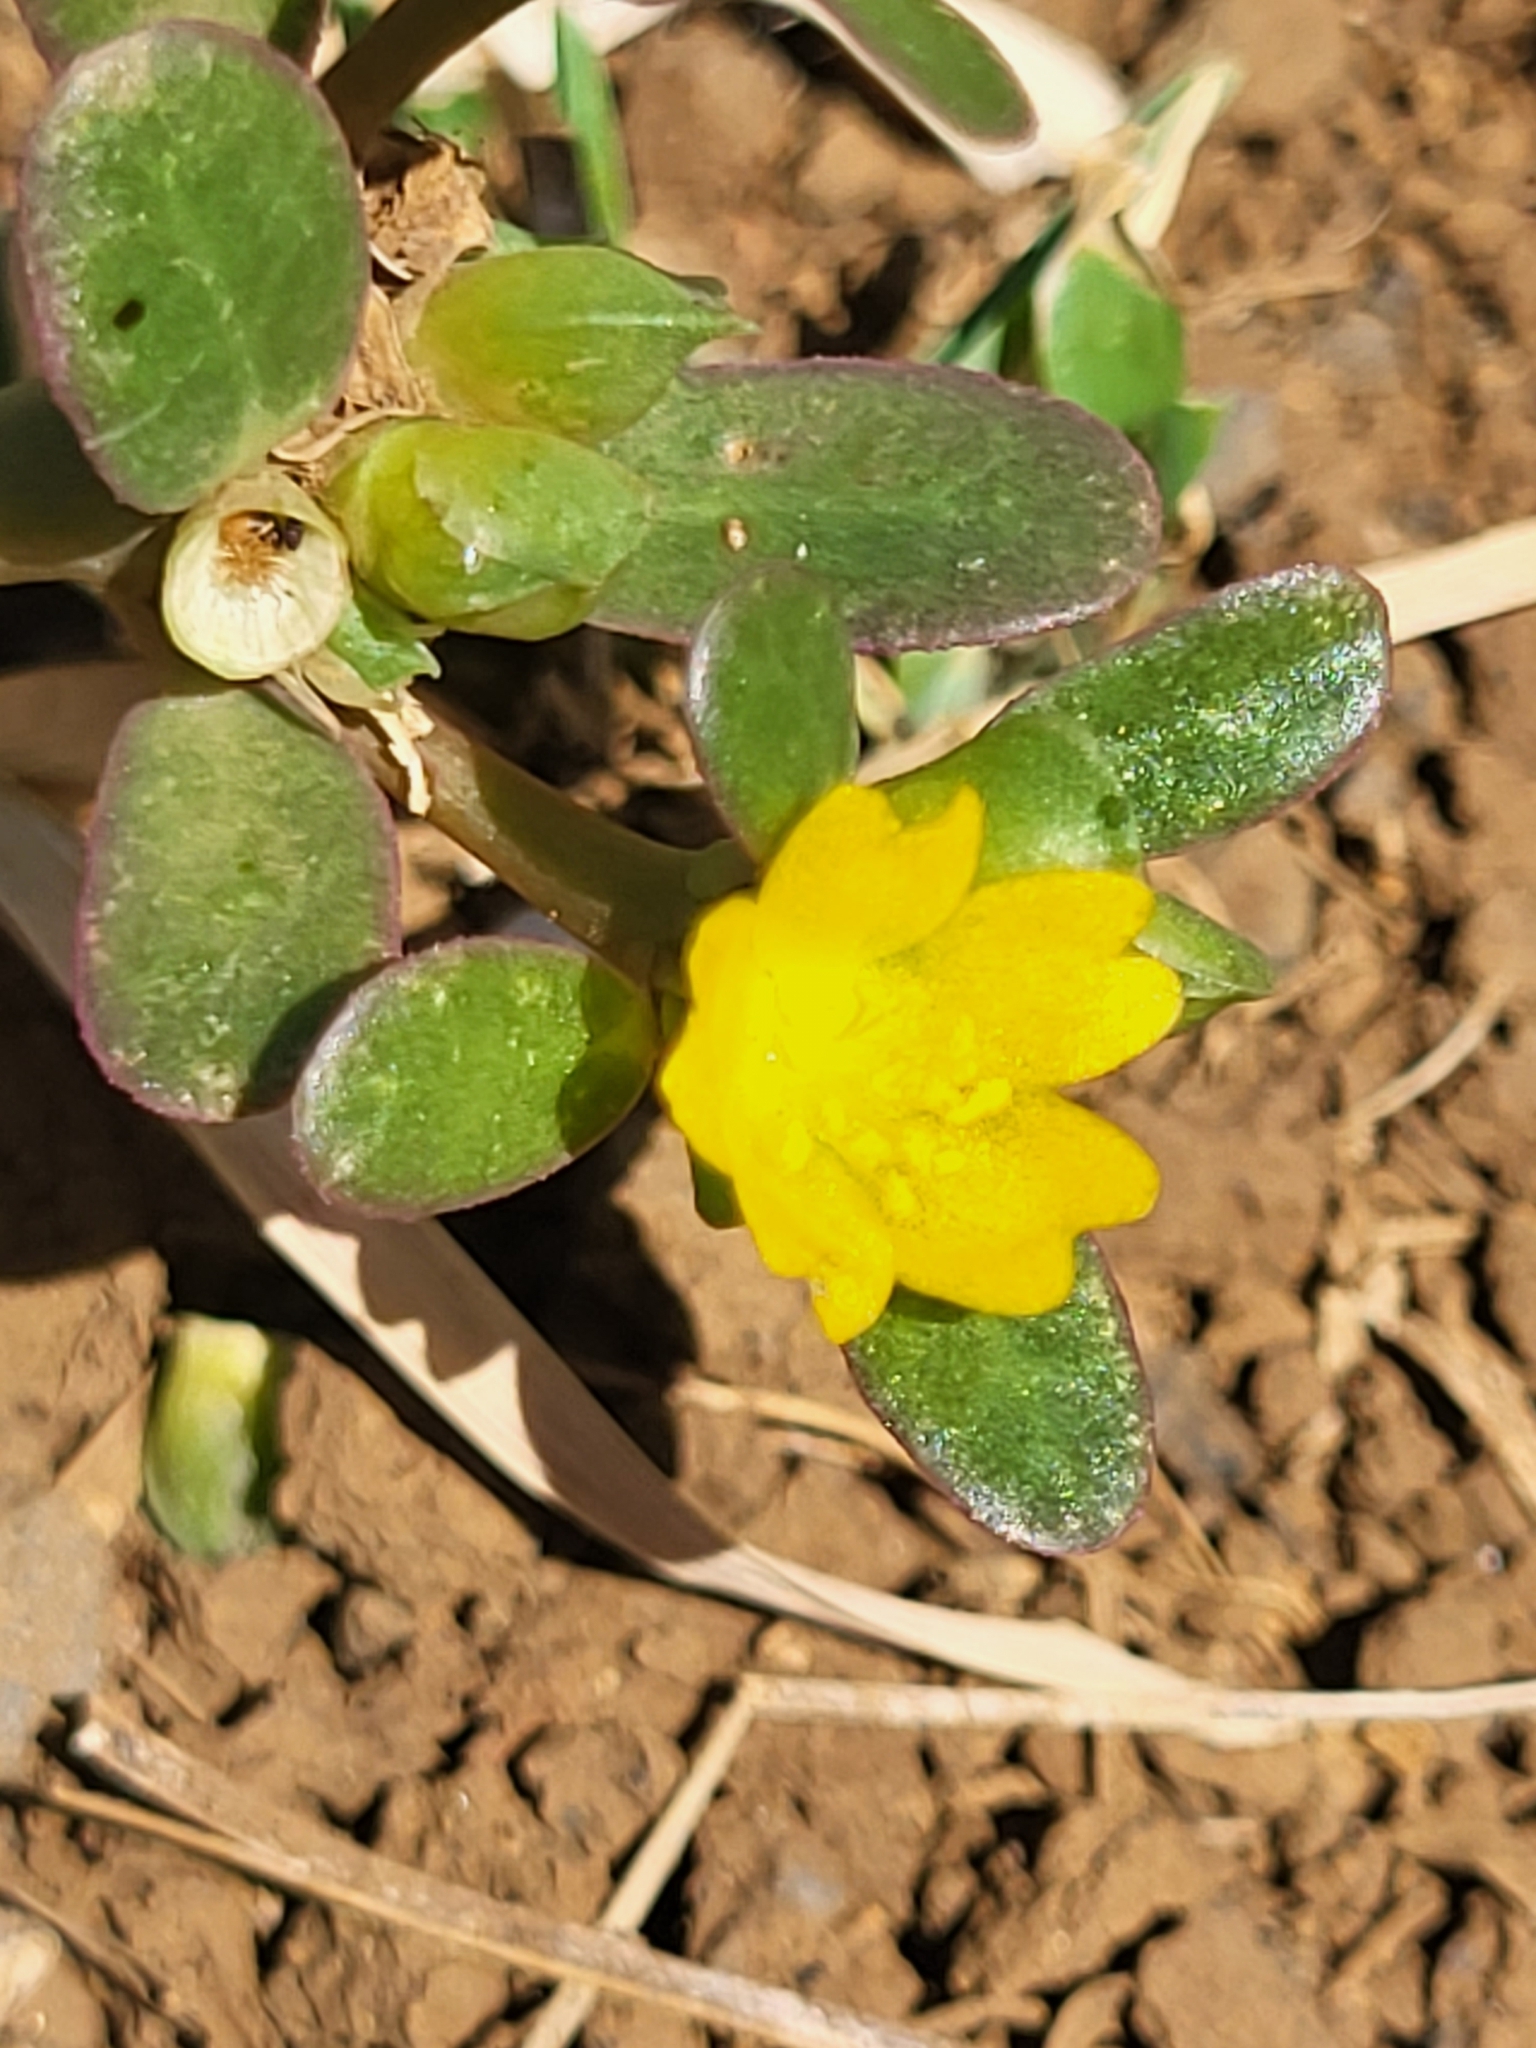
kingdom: Plantae
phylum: Tracheophyta
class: Magnoliopsida
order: Caryophyllales
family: Portulacaceae
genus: Portulaca
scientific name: Portulaca oleracea
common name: Common purslane
